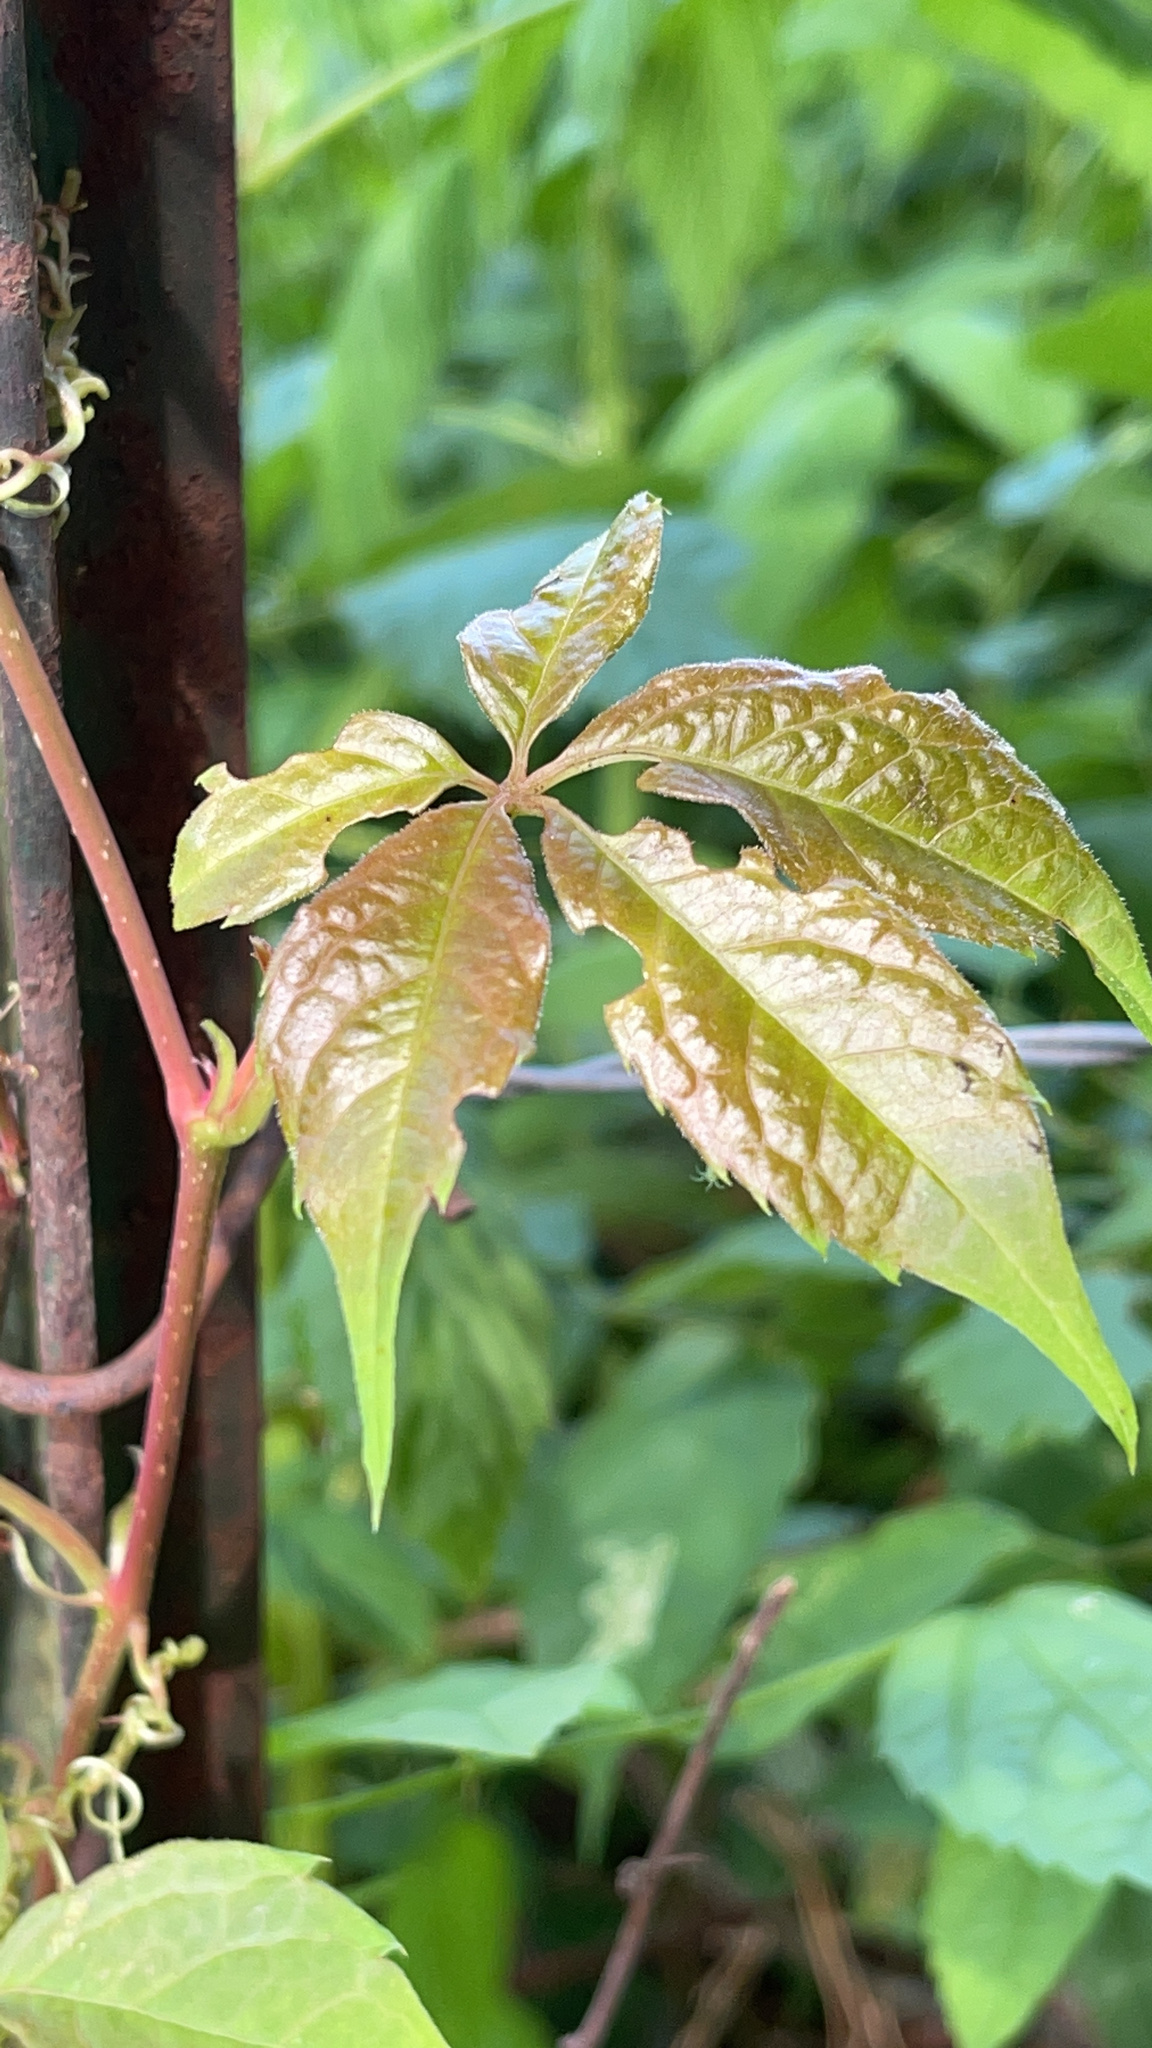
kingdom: Plantae
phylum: Tracheophyta
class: Magnoliopsida
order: Vitales
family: Vitaceae
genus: Parthenocissus
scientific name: Parthenocissus quinquefolia
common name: Virginia-creeper
